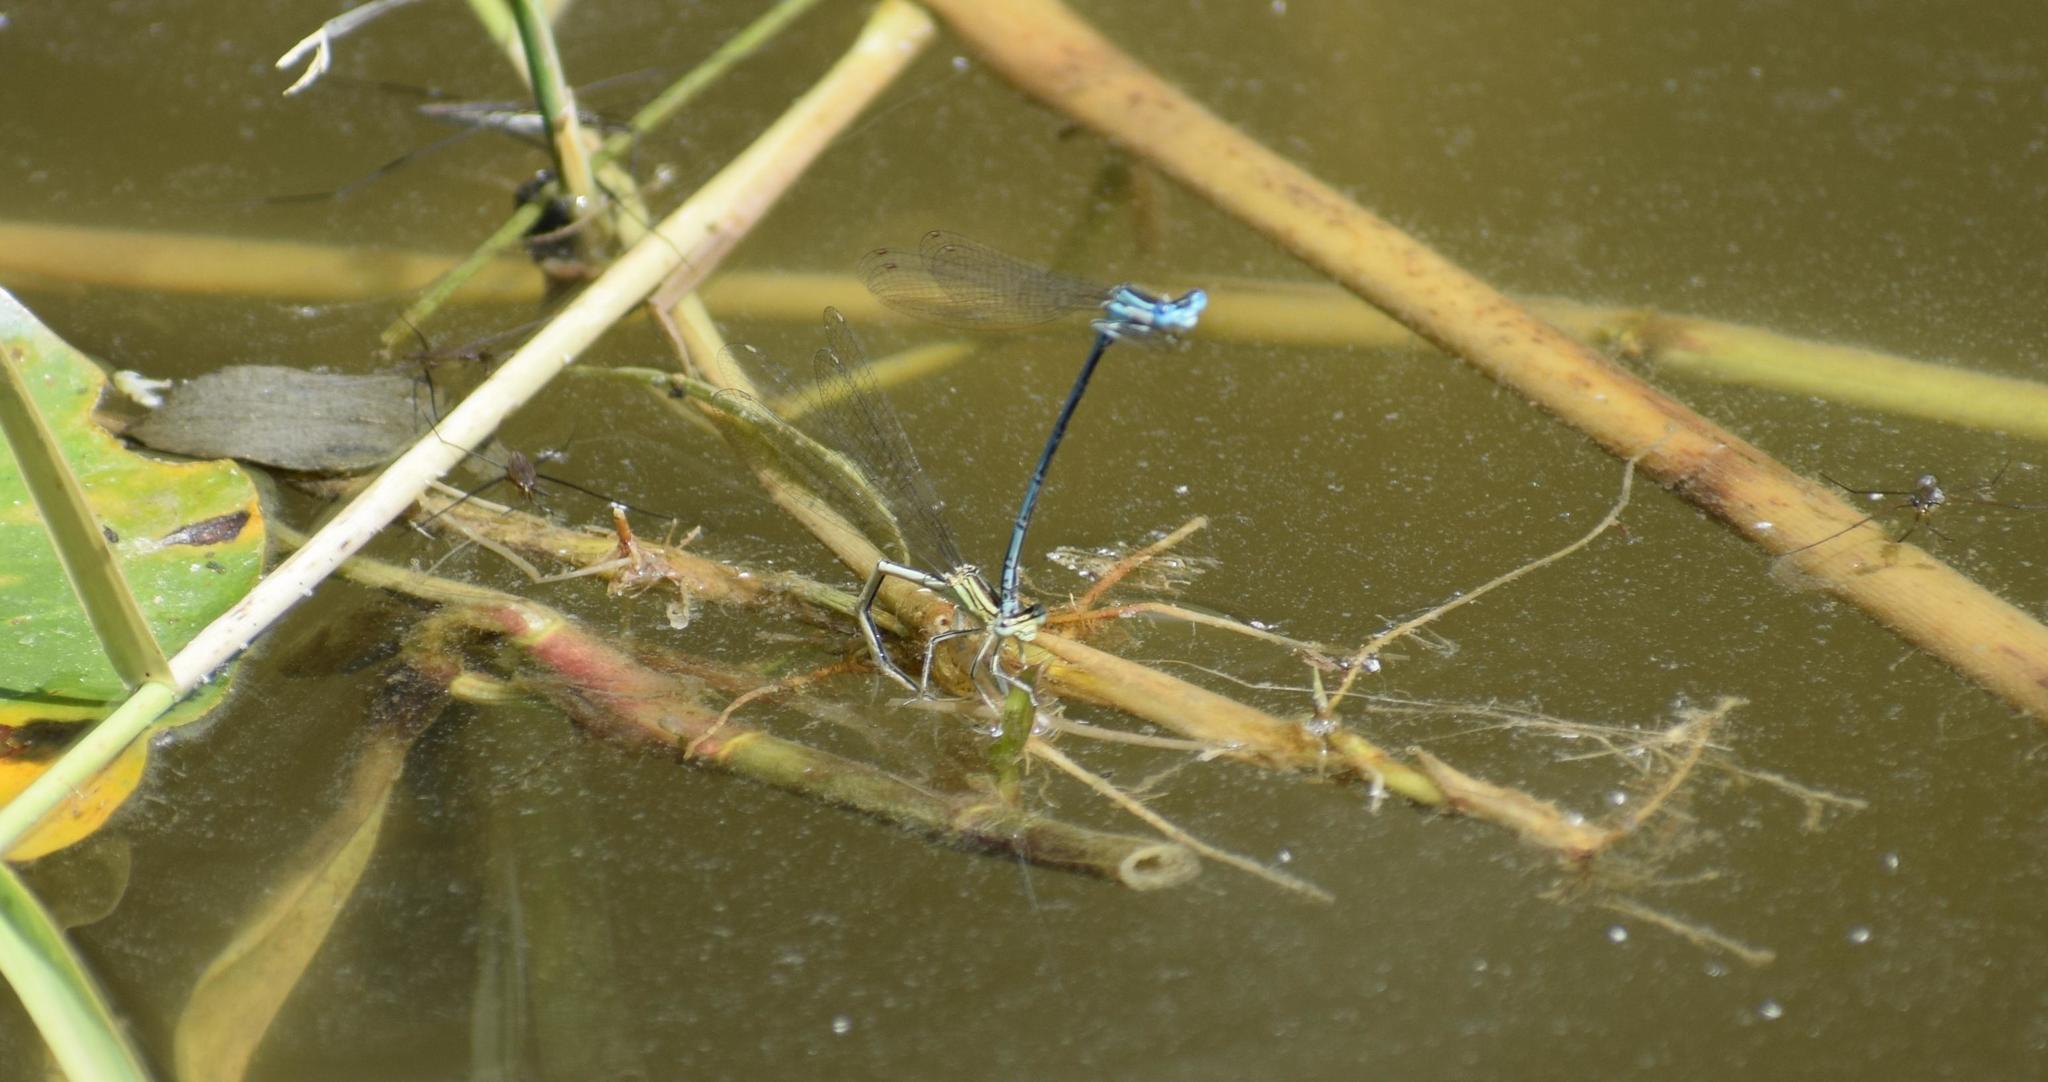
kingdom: Animalia
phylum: Arthropoda
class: Insecta
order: Odonata
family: Platycnemididae
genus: Platycnemis
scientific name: Platycnemis pennipes
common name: White-legged damselfly
